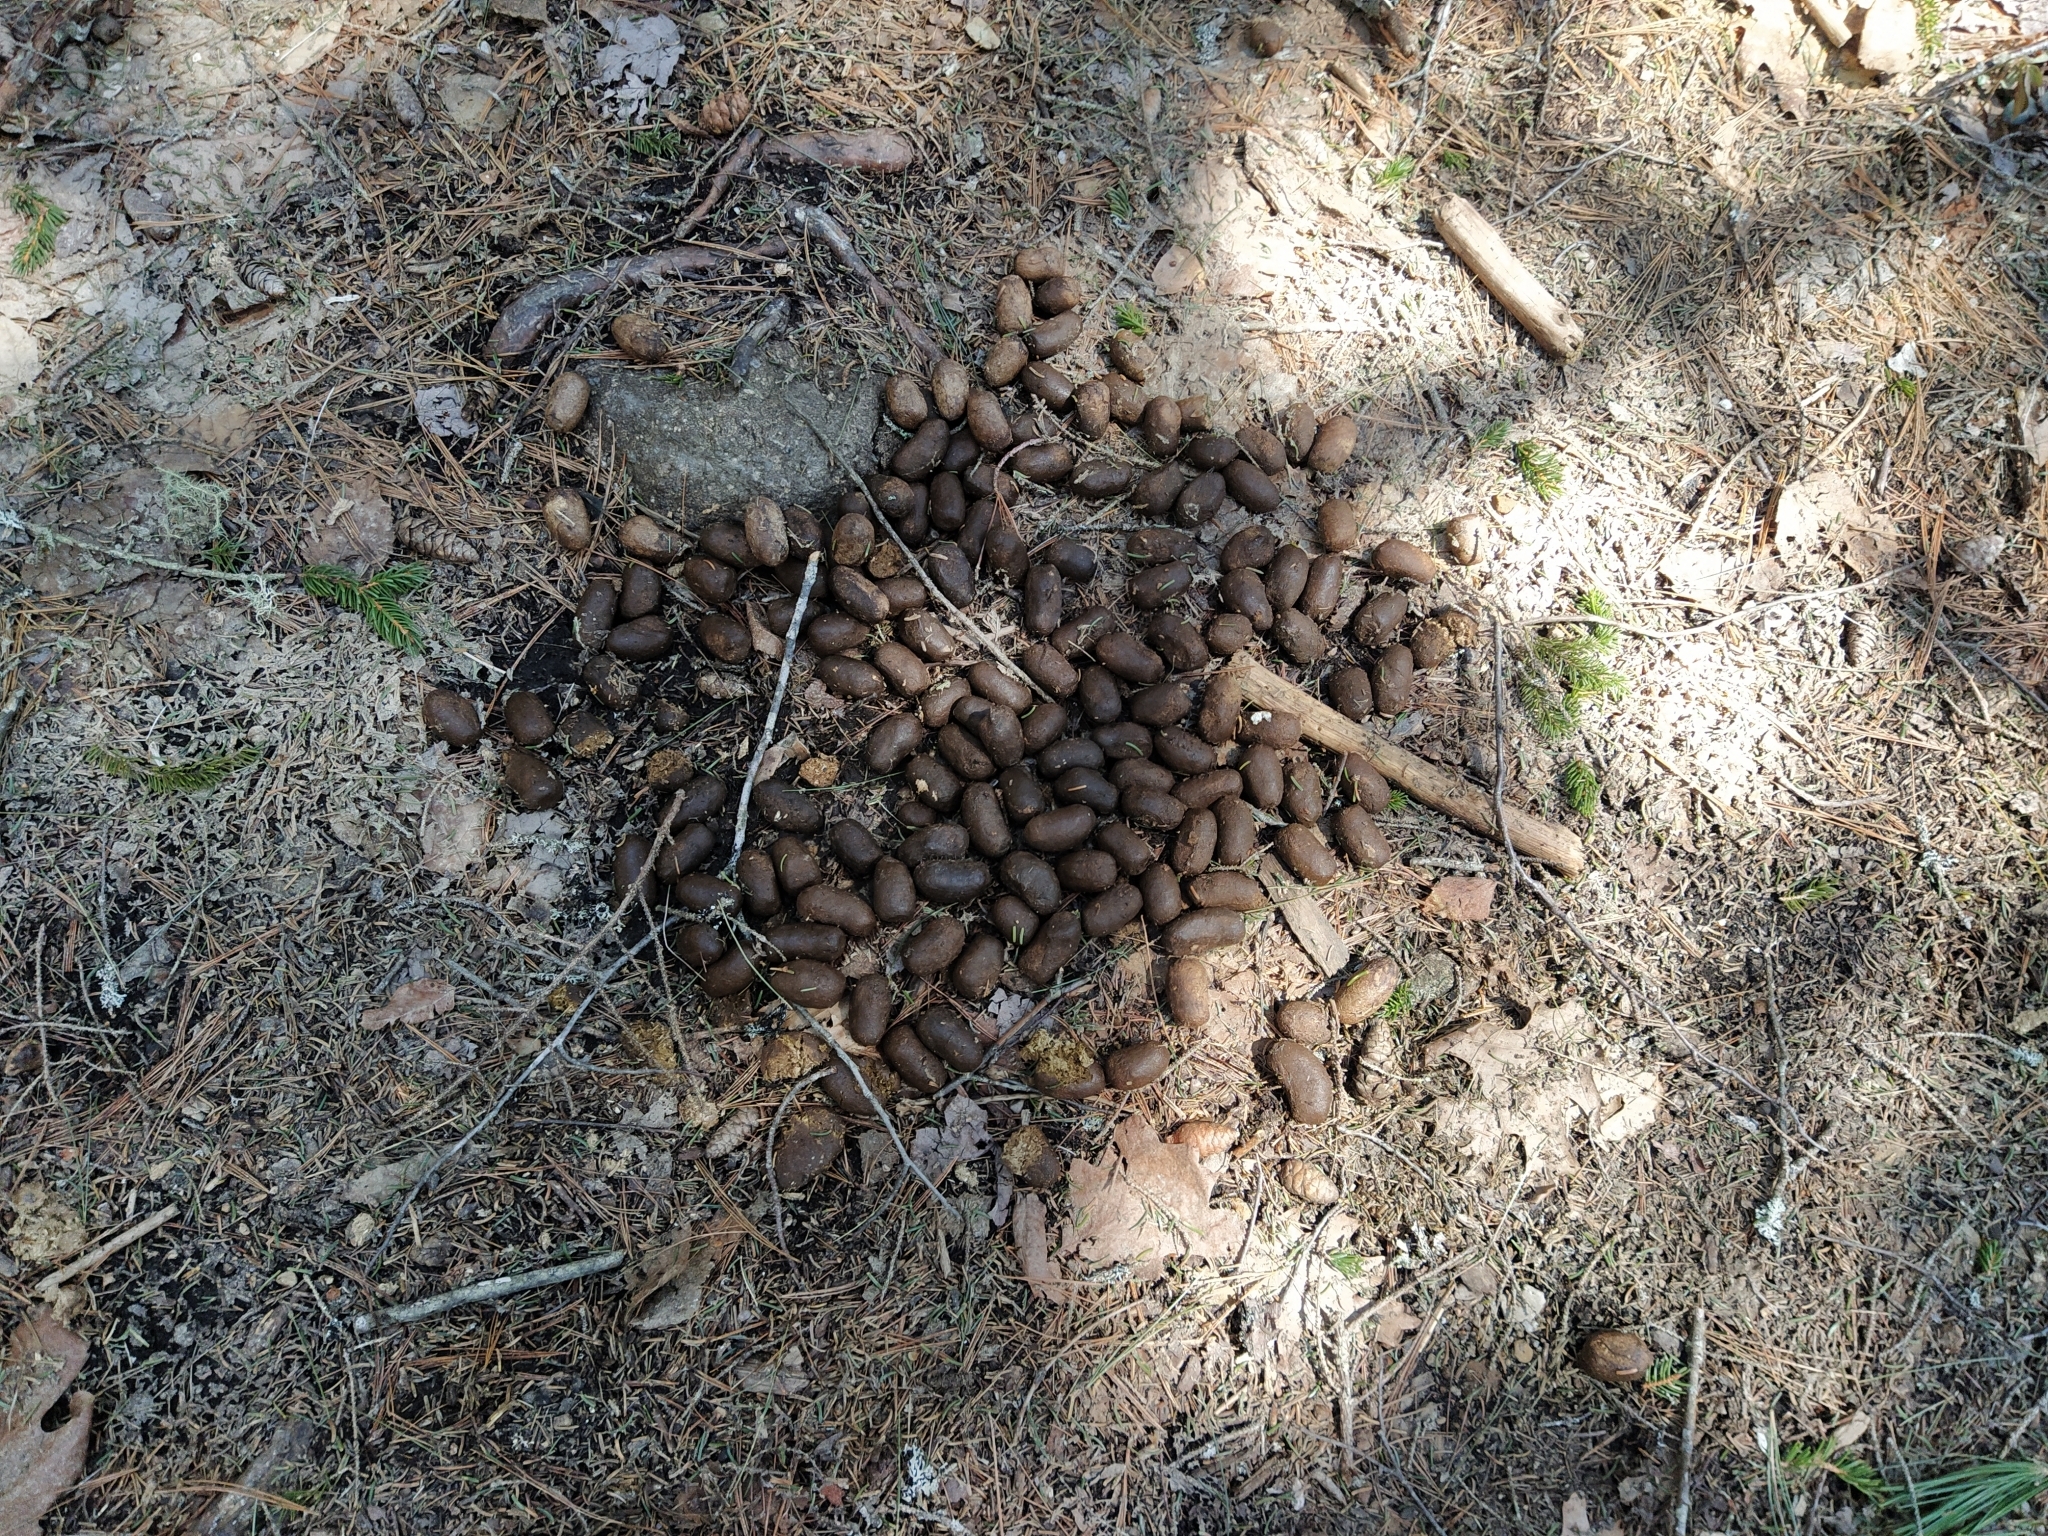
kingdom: Animalia
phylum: Chordata
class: Mammalia
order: Artiodactyla
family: Cervidae
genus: Alces
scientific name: Alces alces
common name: Moose
